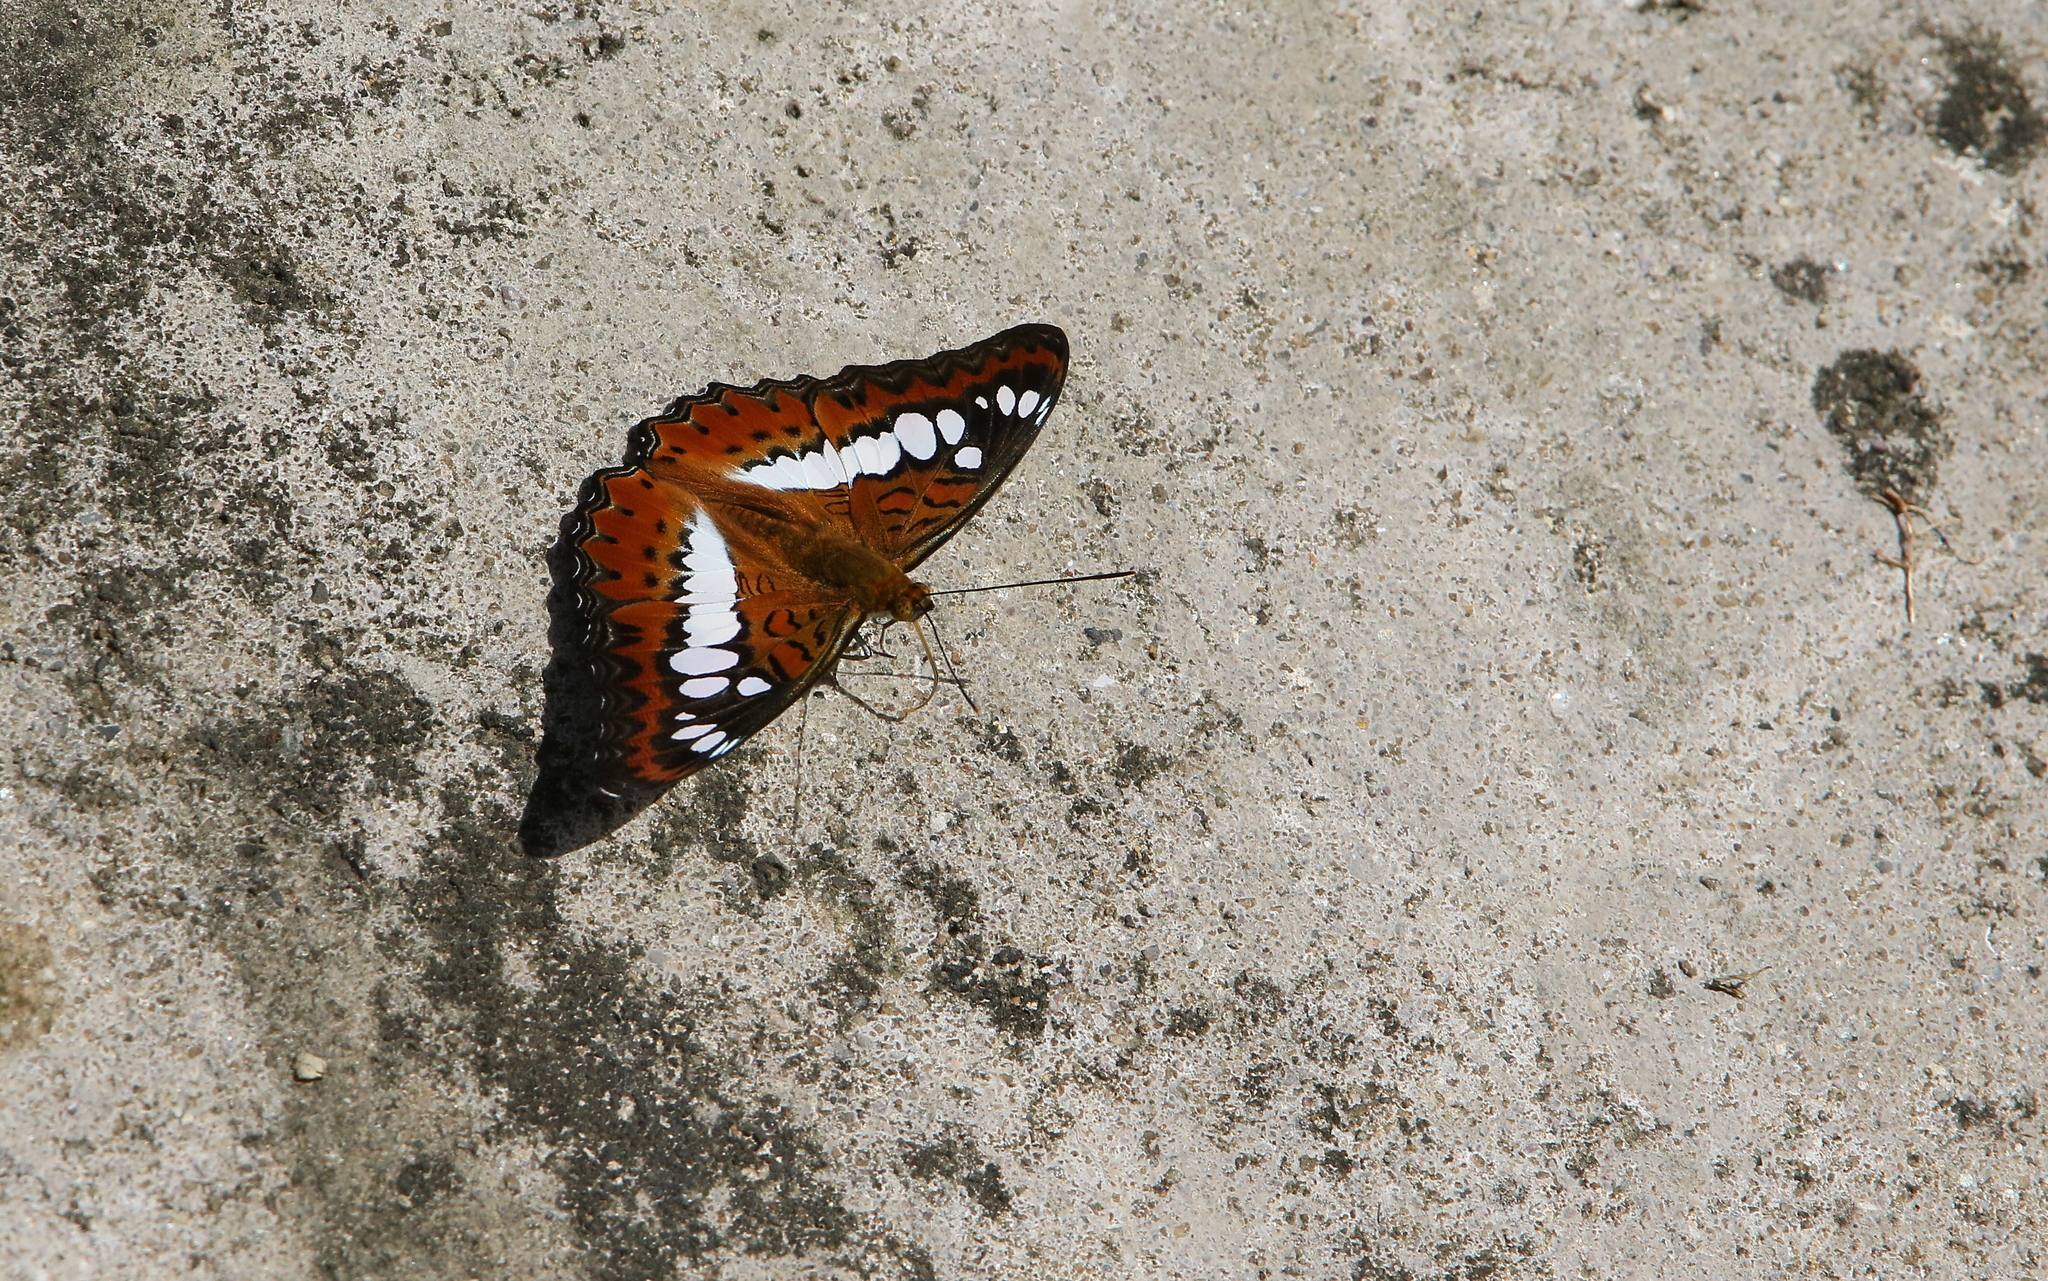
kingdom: Animalia
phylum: Arthropoda
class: Insecta
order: Lepidoptera
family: Nymphalidae
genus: Limenitis
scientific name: Limenitis Moduza procris
